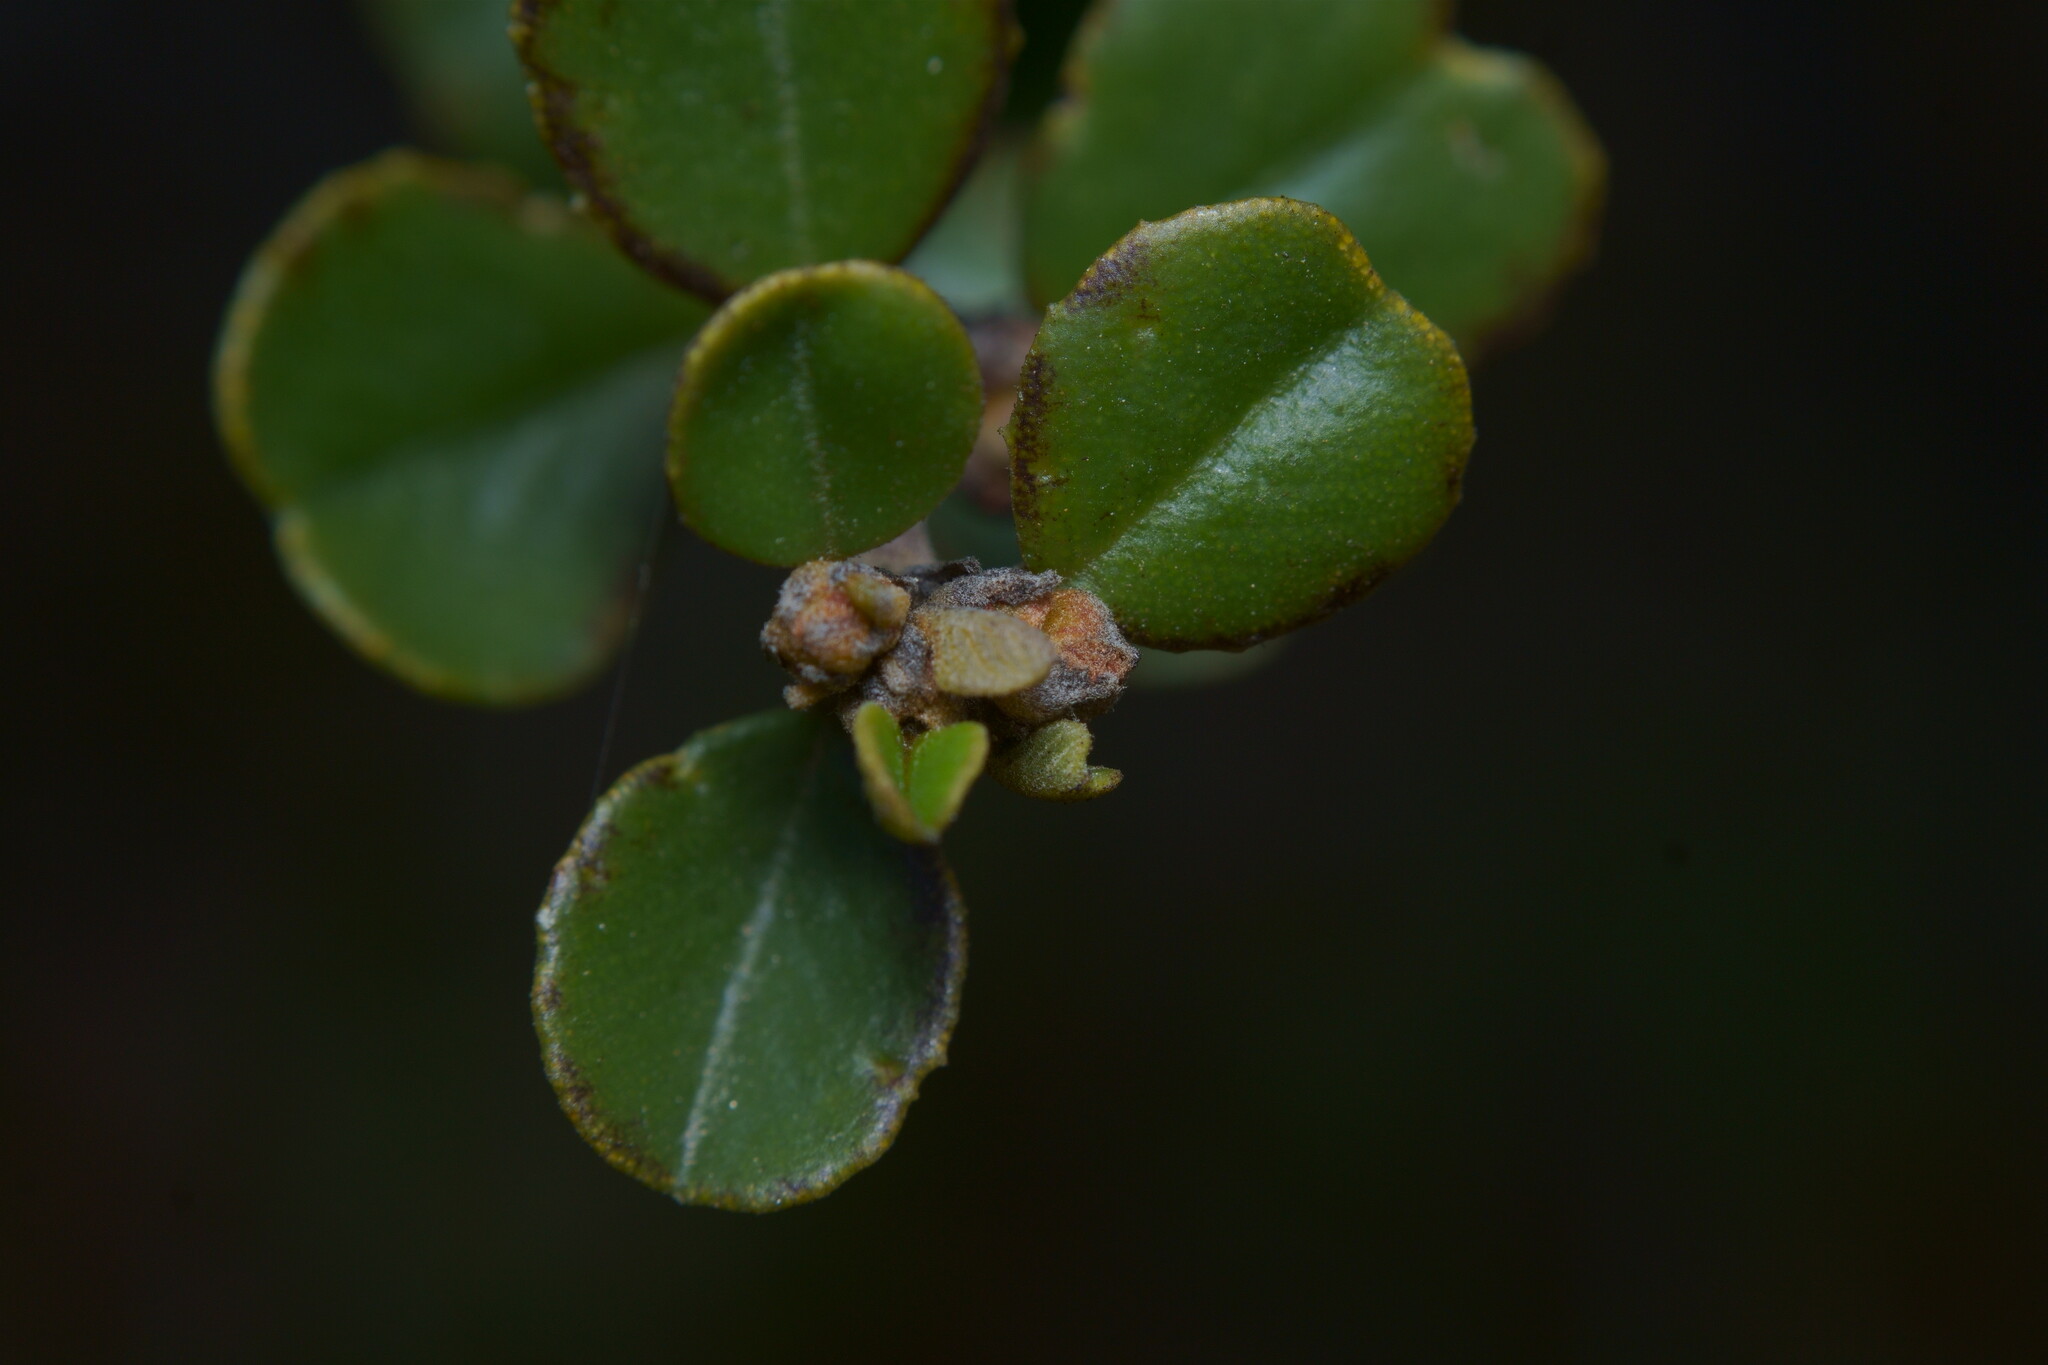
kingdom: Plantae
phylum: Tracheophyta
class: Magnoliopsida
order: Rosales
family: Rhamnaceae
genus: Ceanothus
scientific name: Ceanothus verrucosus
